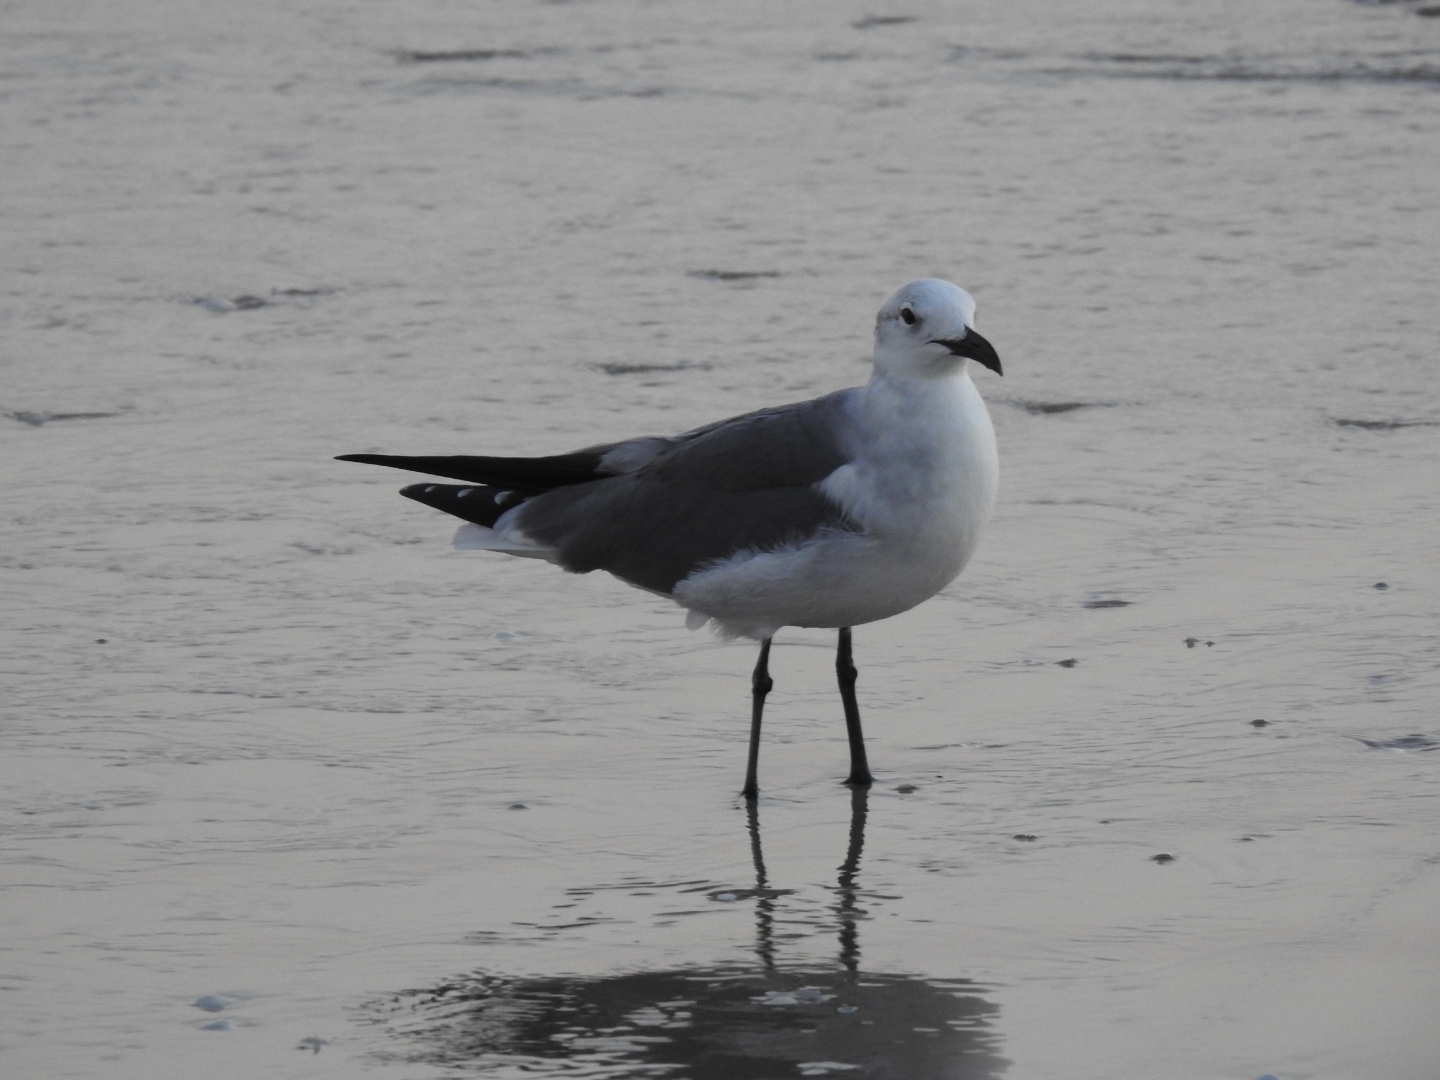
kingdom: Animalia
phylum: Chordata
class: Aves
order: Charadriiformes
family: Laridae
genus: Leucophaeus
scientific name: Leucophaeus atricilla
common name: Laughing gull
